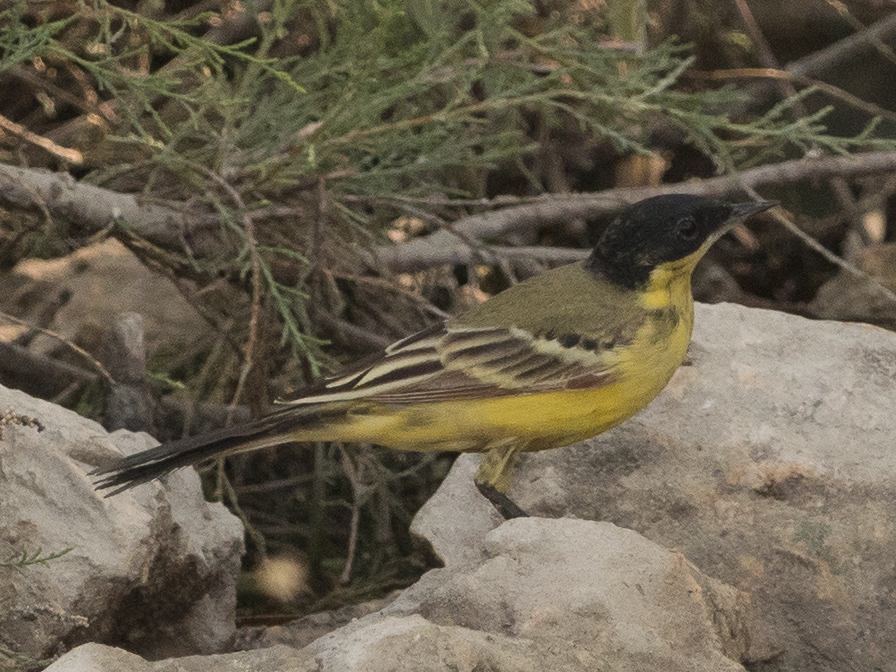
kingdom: Animalia
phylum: Chordata
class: Aves
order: Passeriformes
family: Motacillidae
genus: Motacilla
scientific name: Motacilla flava
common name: Western yellow wagtail
